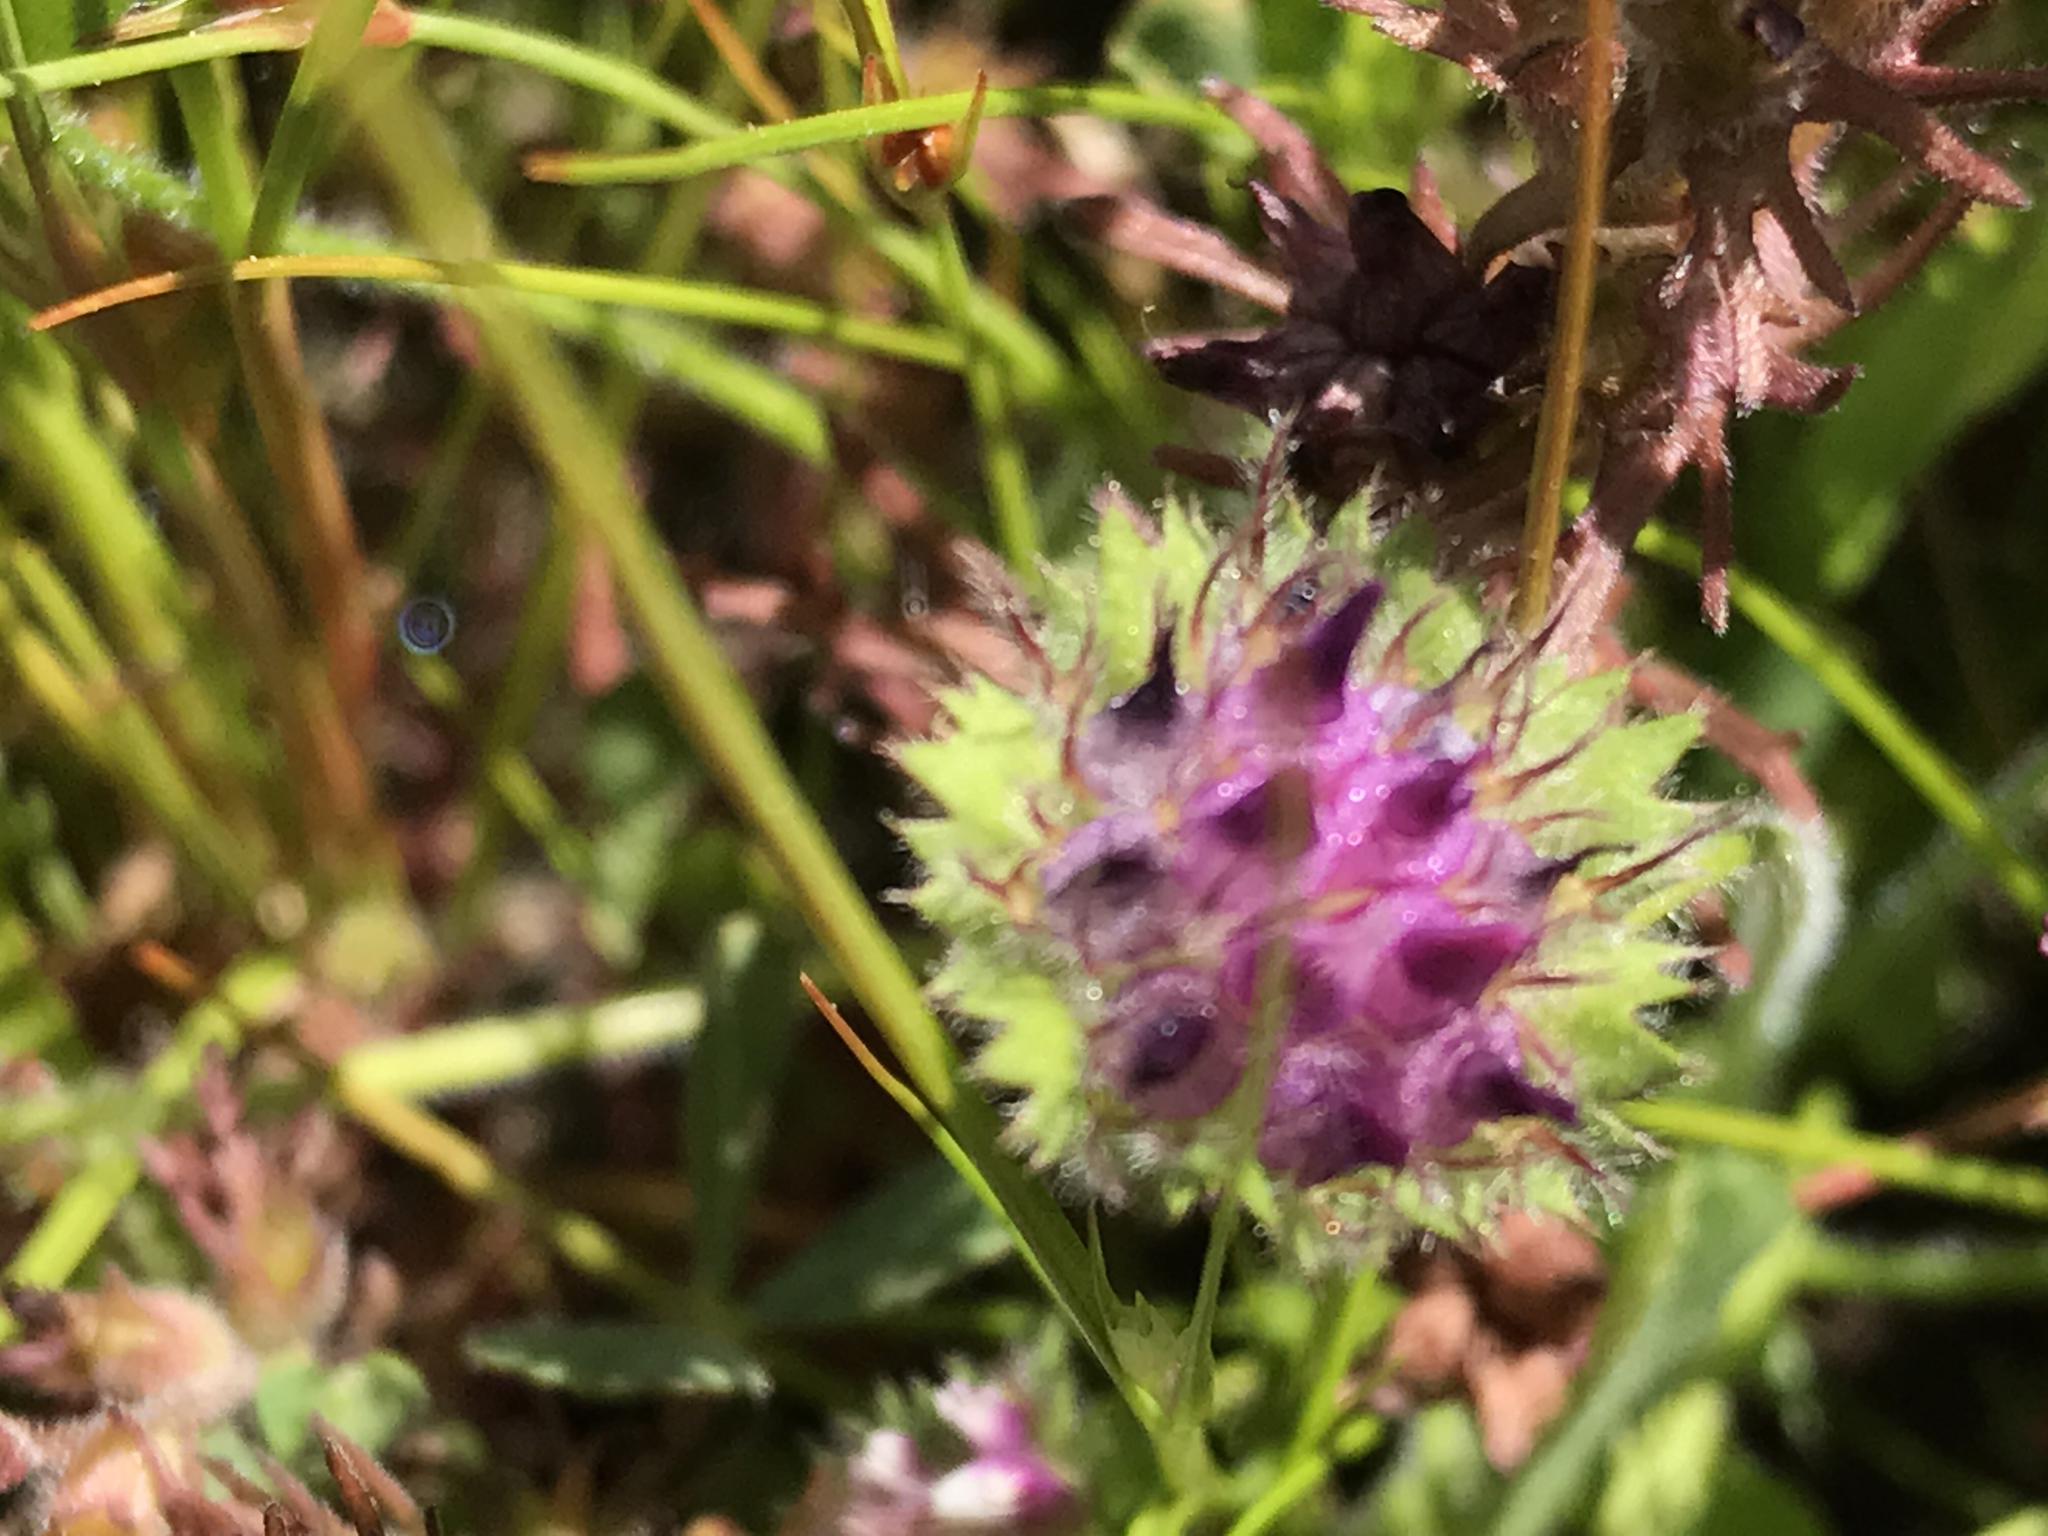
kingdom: Plantae
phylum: Tracheophyta
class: Magnoliopsida
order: Fabales
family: Fabaceae
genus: Trifolium
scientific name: Trifolium barbigerum
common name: Bearded clover
